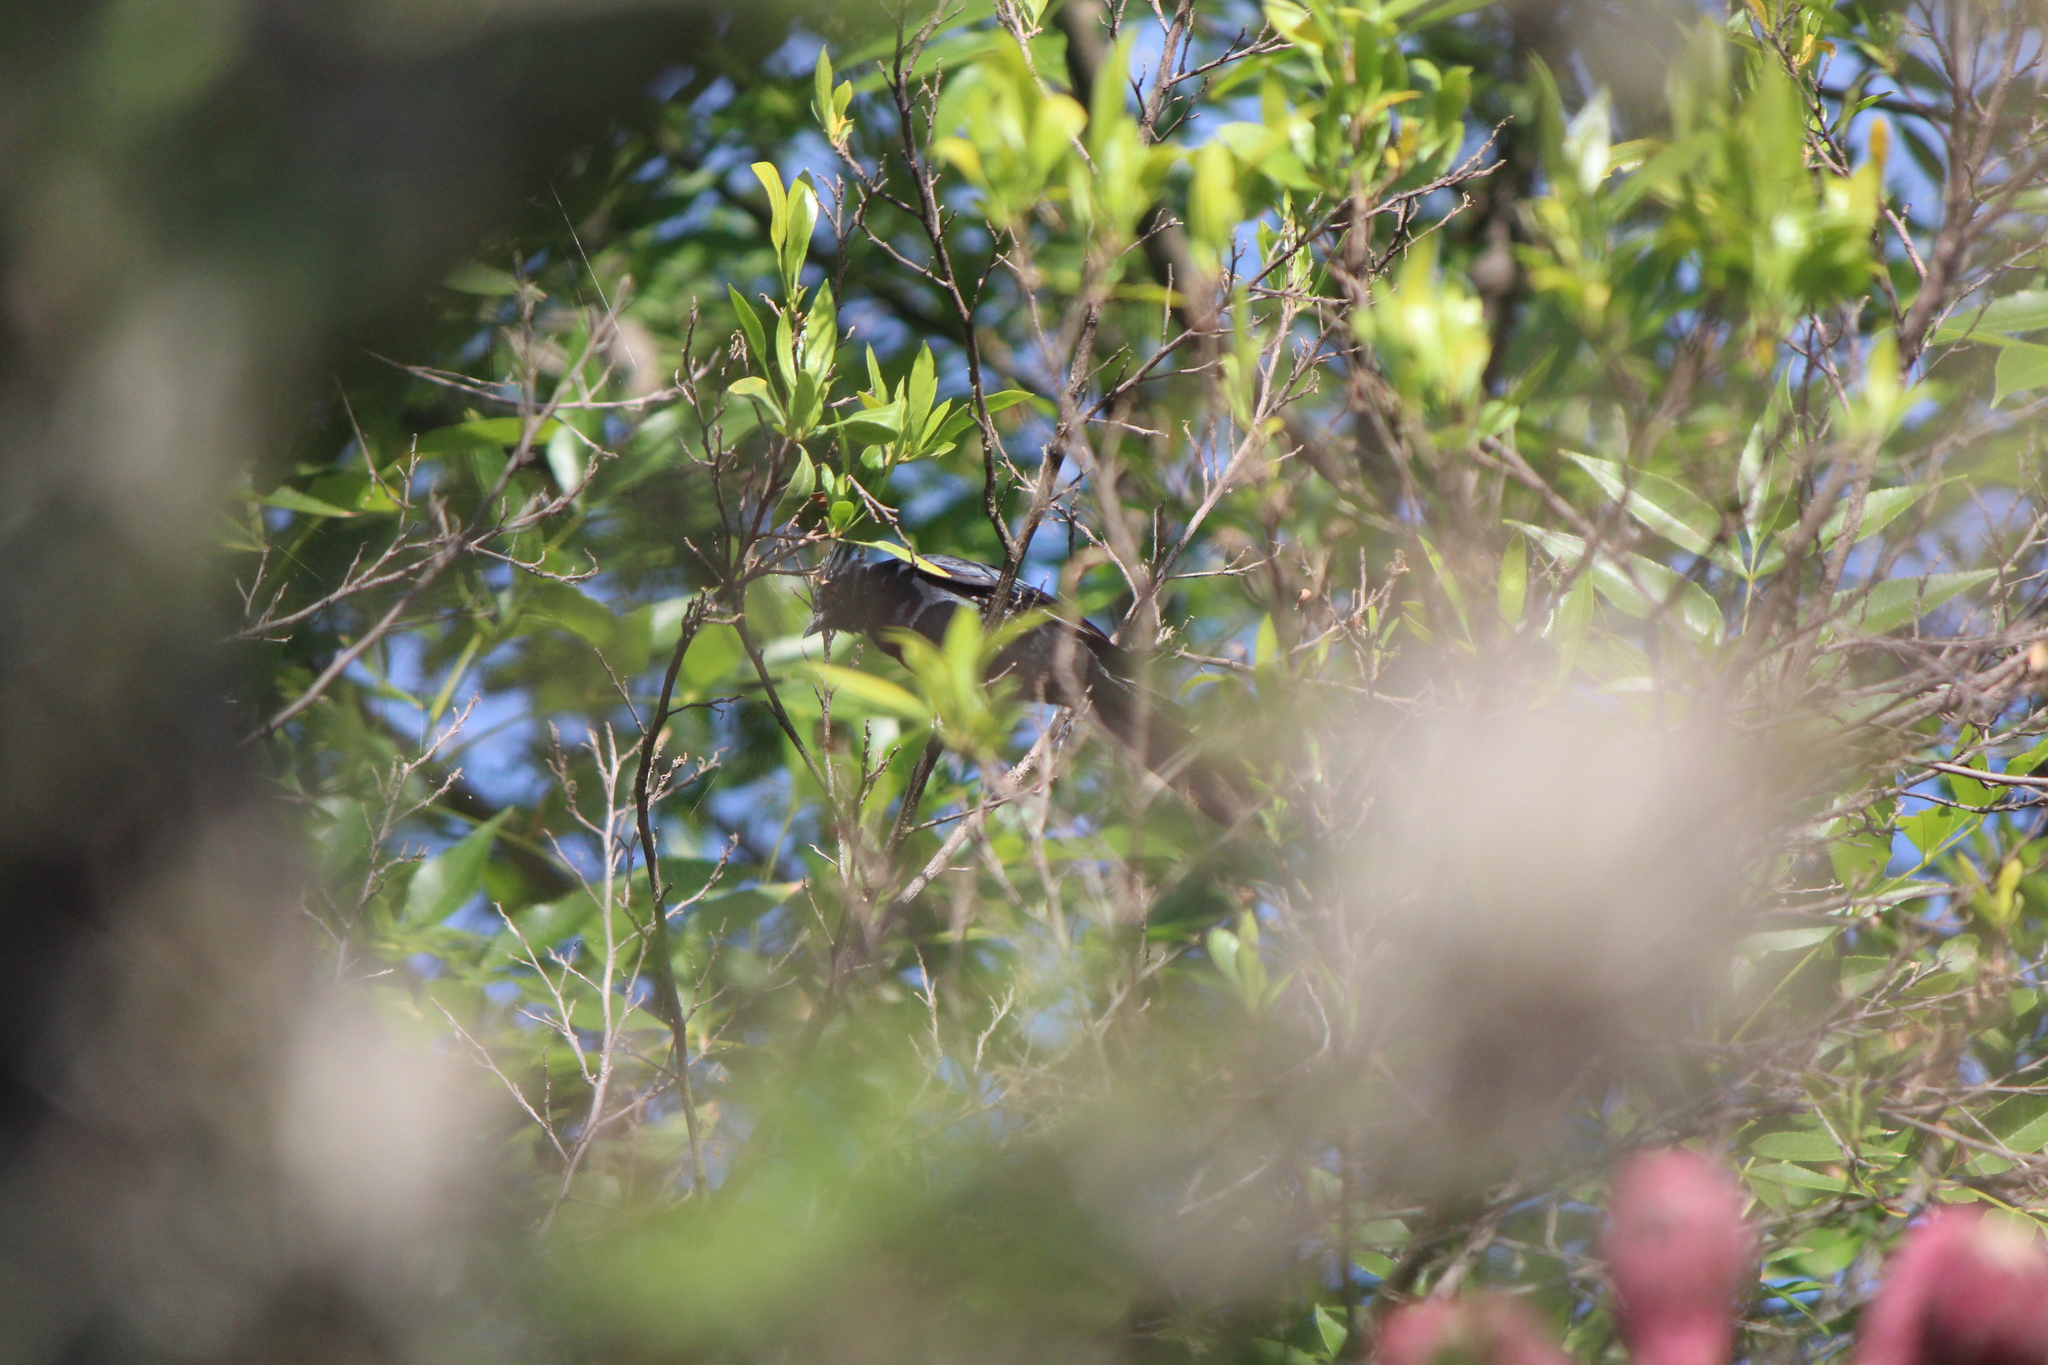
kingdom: Animalia
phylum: Chordata
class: Aves
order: Passeriformes
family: Ptilogonatidae
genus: Phainopepla
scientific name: Phainopepla nitens
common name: Phainopepla
